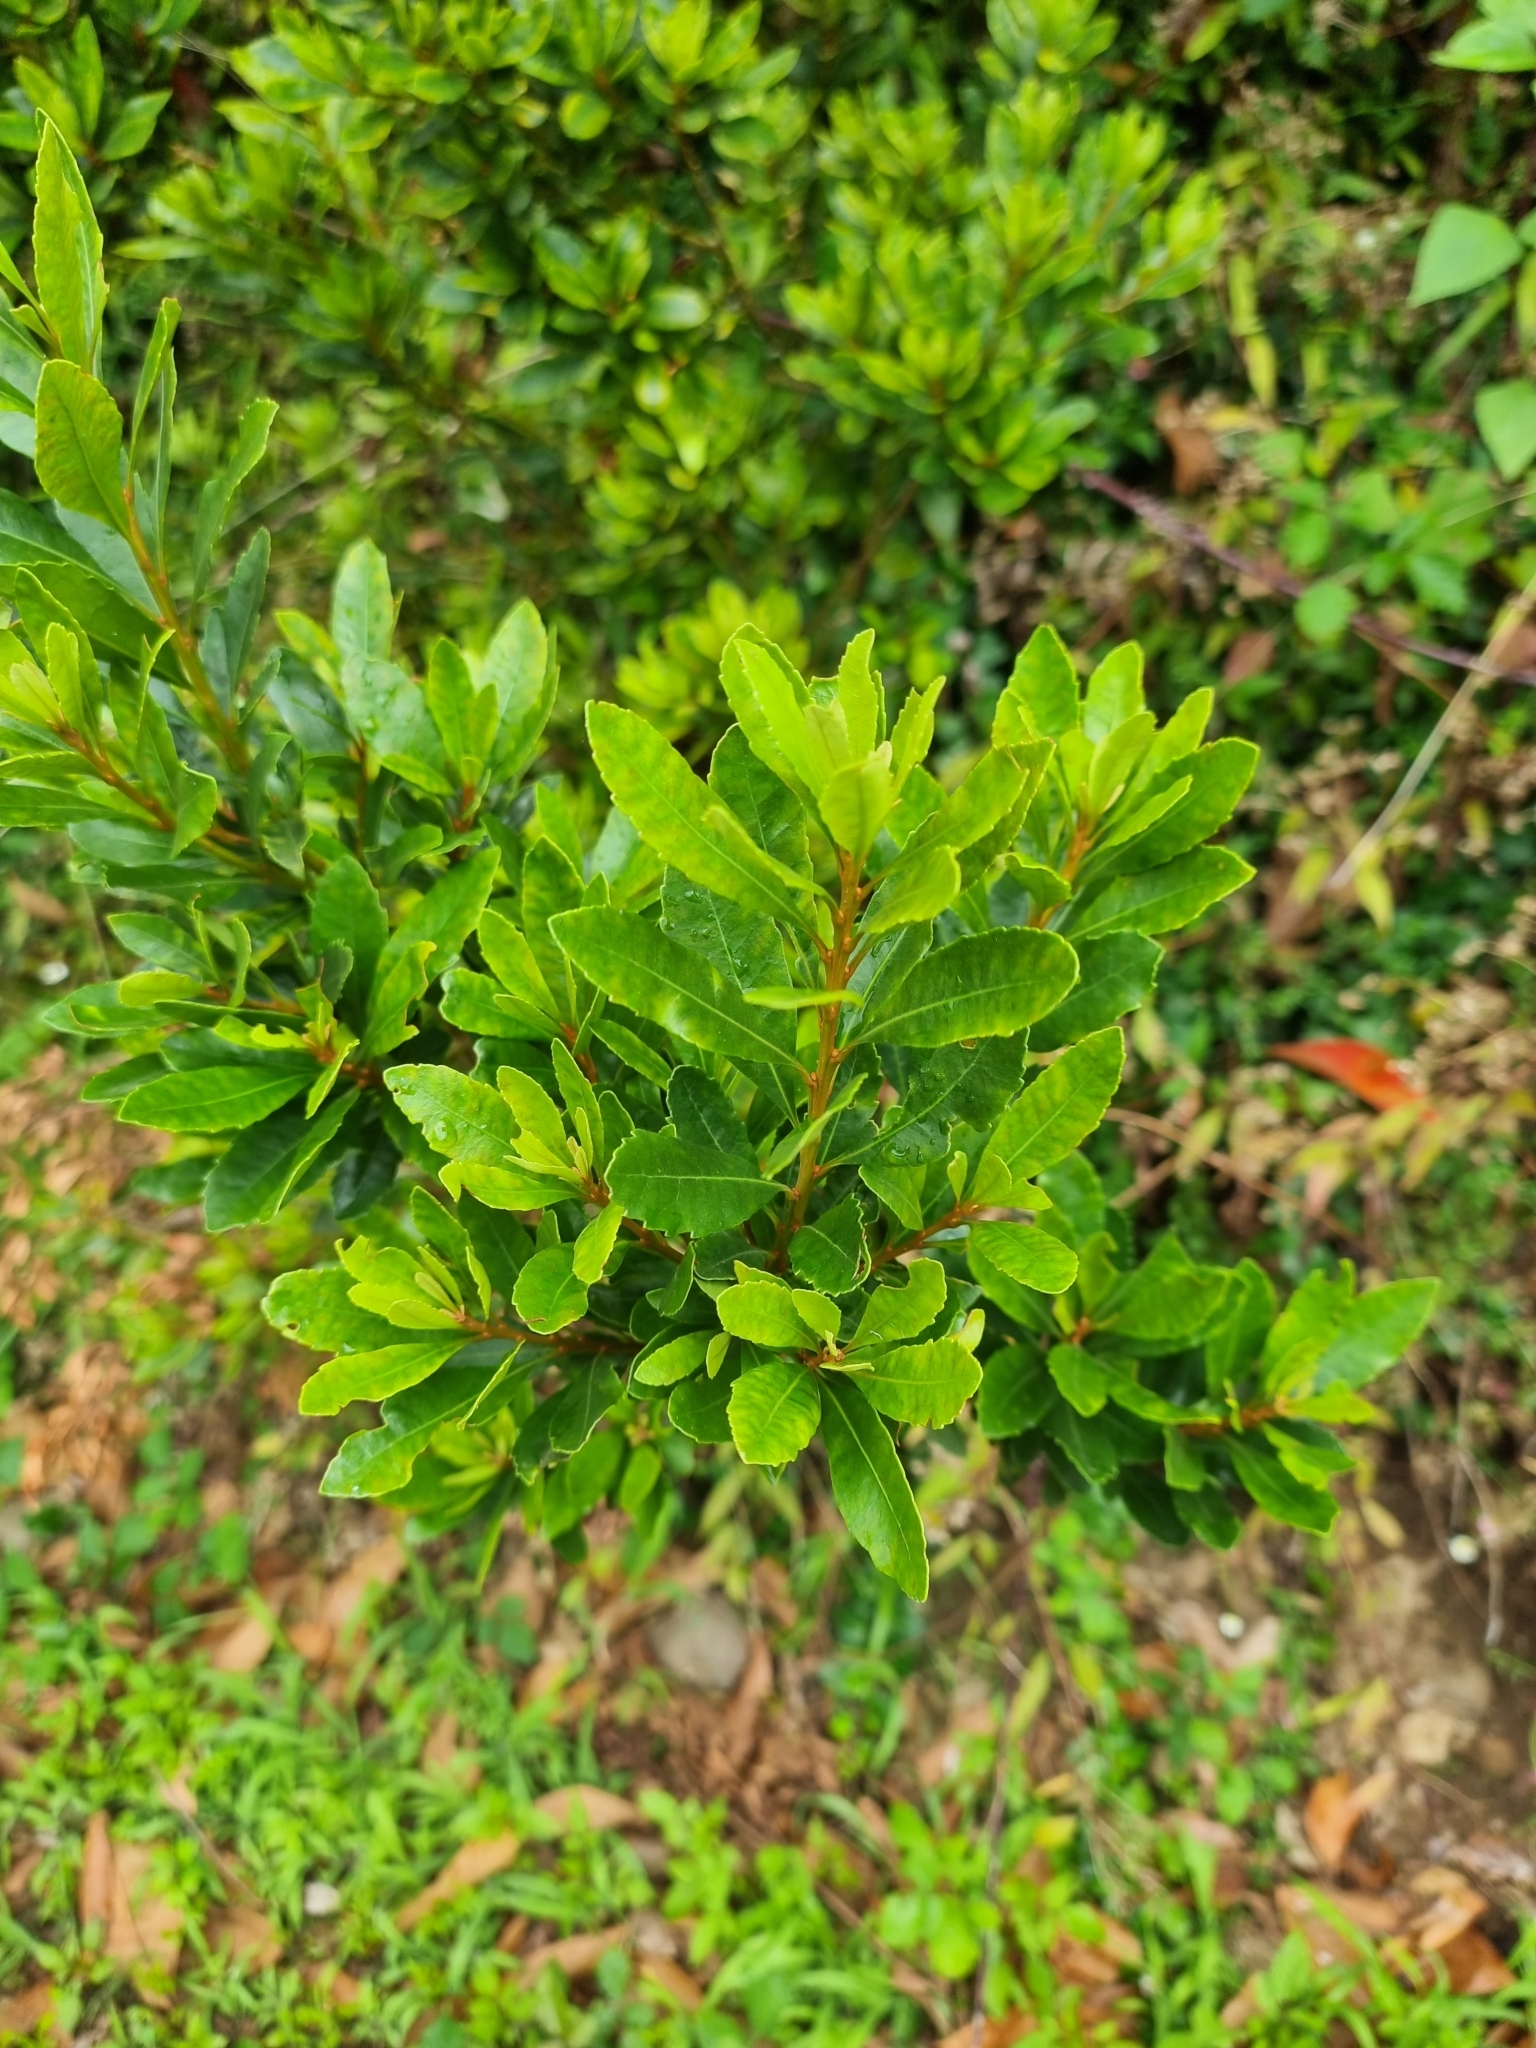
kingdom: Plantae
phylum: Tracheophyta
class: Magnoliopsida
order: Fagales
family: Myricaceae
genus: Morella
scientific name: Morella faya
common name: Firetree
